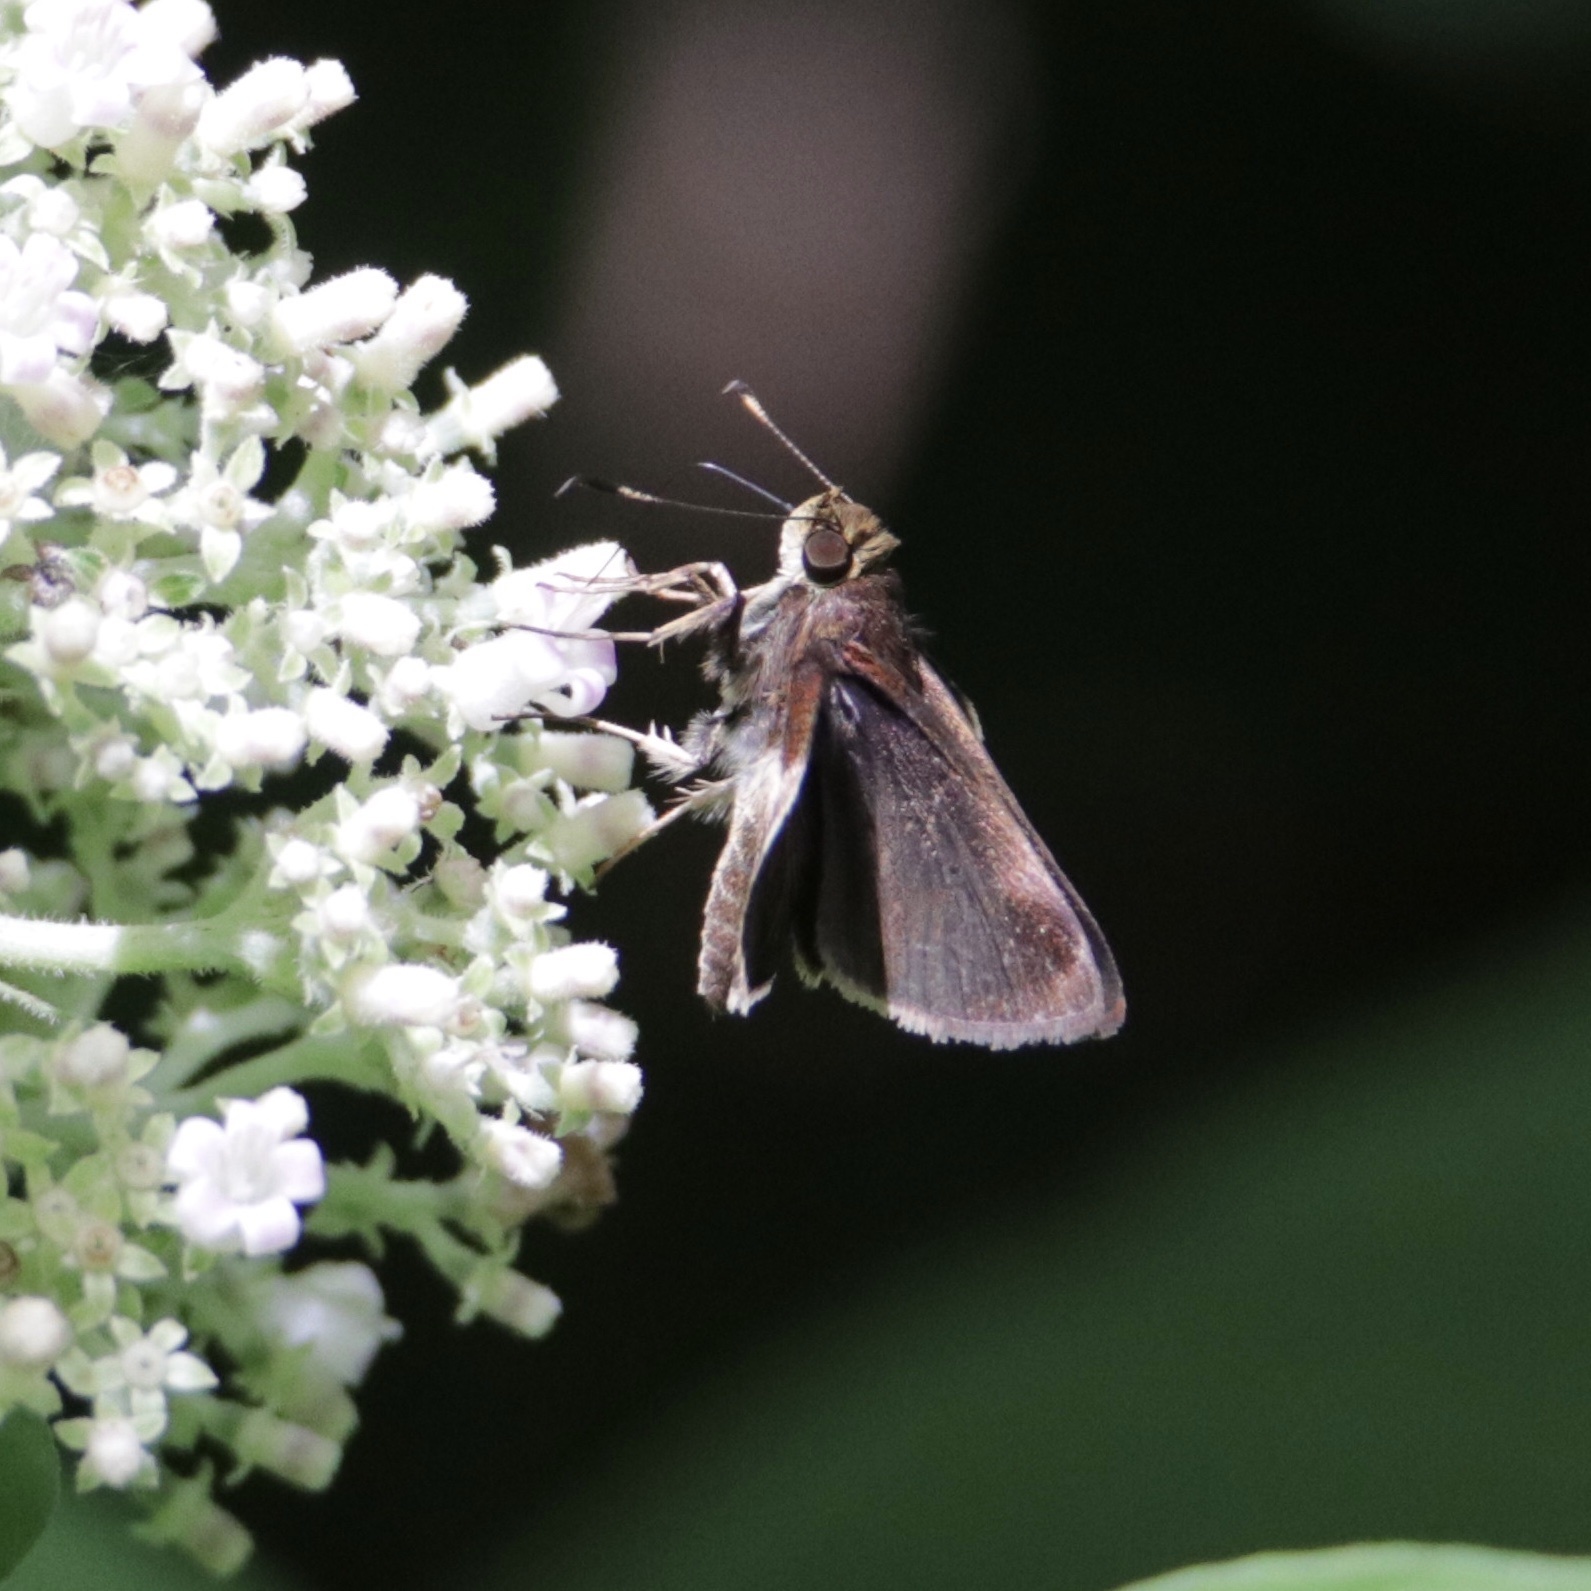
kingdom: Animalia
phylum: Arthropoda
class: Insecta
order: Lepidoptera
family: Hesperiidae
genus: Pompeius
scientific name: Pompeius pompeius
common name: Pompeius skipper
